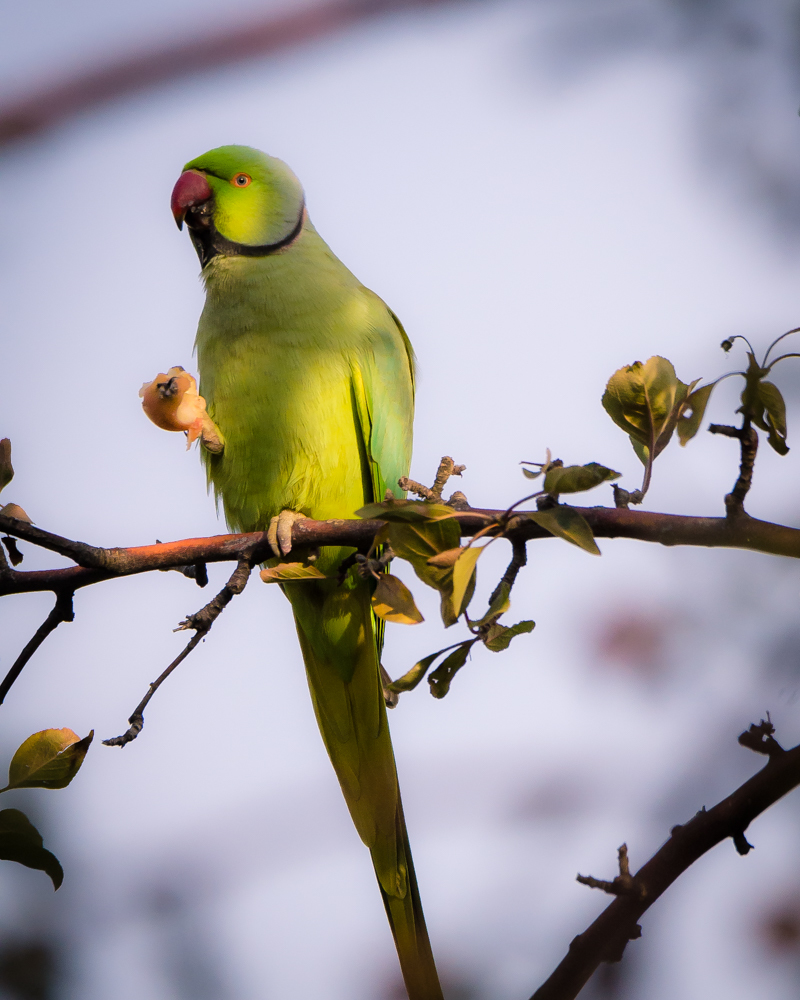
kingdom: Animalia
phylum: Chordata
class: Aves
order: Psittaciformes
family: Psittacidae
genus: Psittacula
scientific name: Psittacula krameri
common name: Rose-ringed parakeet
